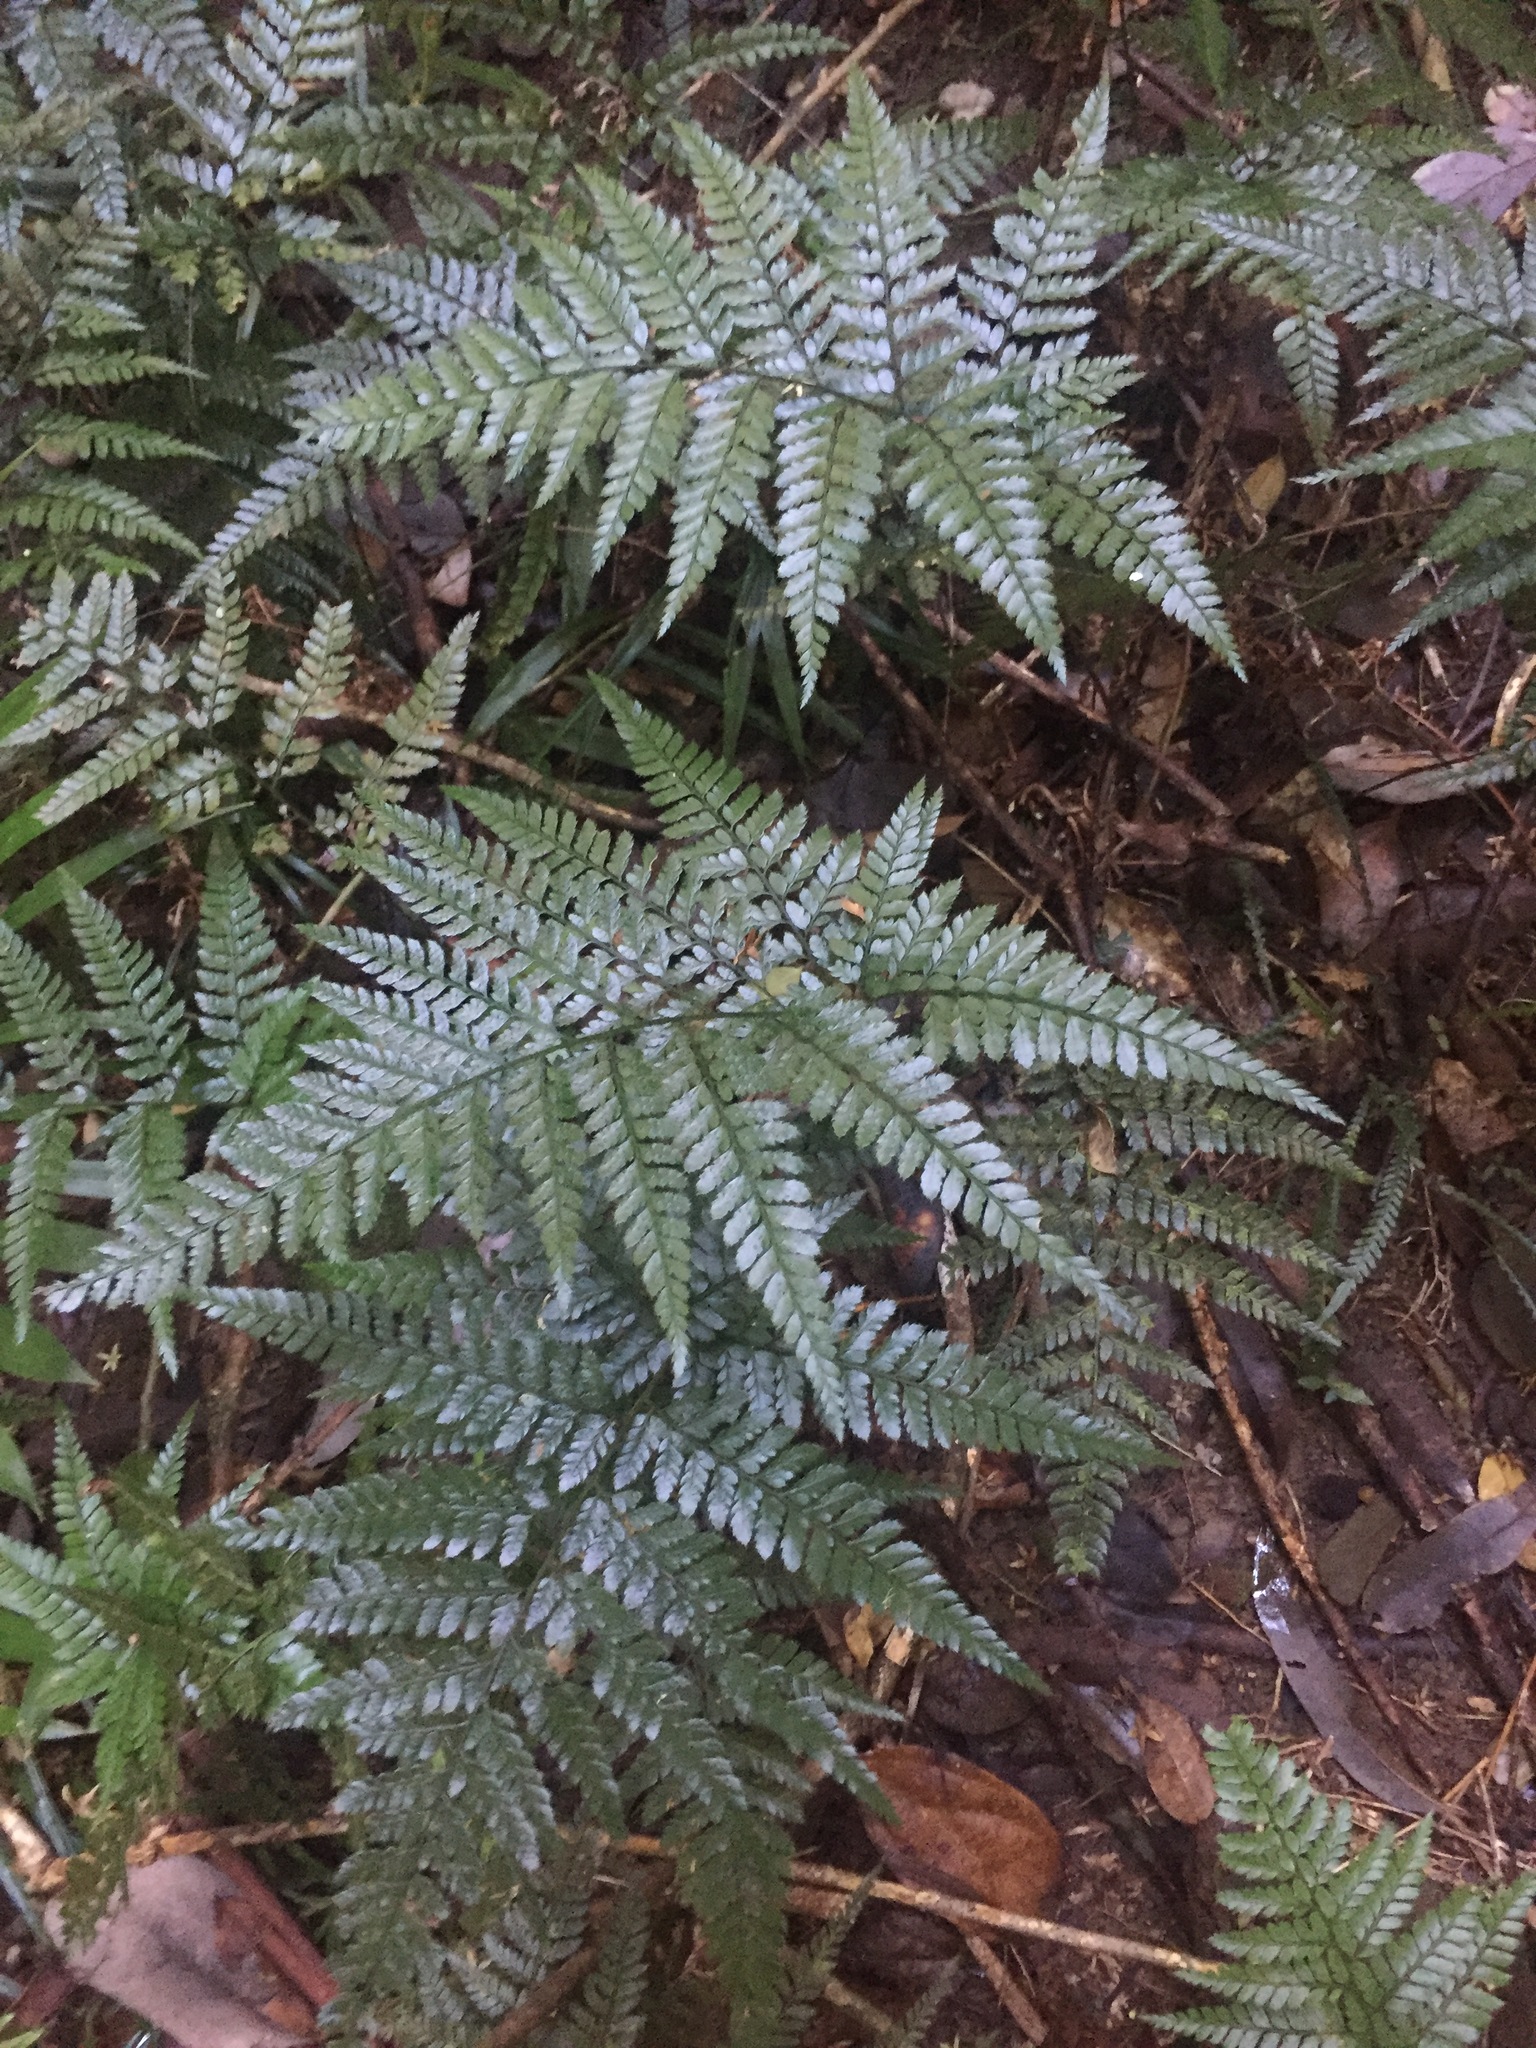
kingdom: Plantae
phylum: Tracheophyta
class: Polypodiopsida
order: Polypodiales
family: Dryopteridaceae
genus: Arachniodes
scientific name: Arachniodes aristata
